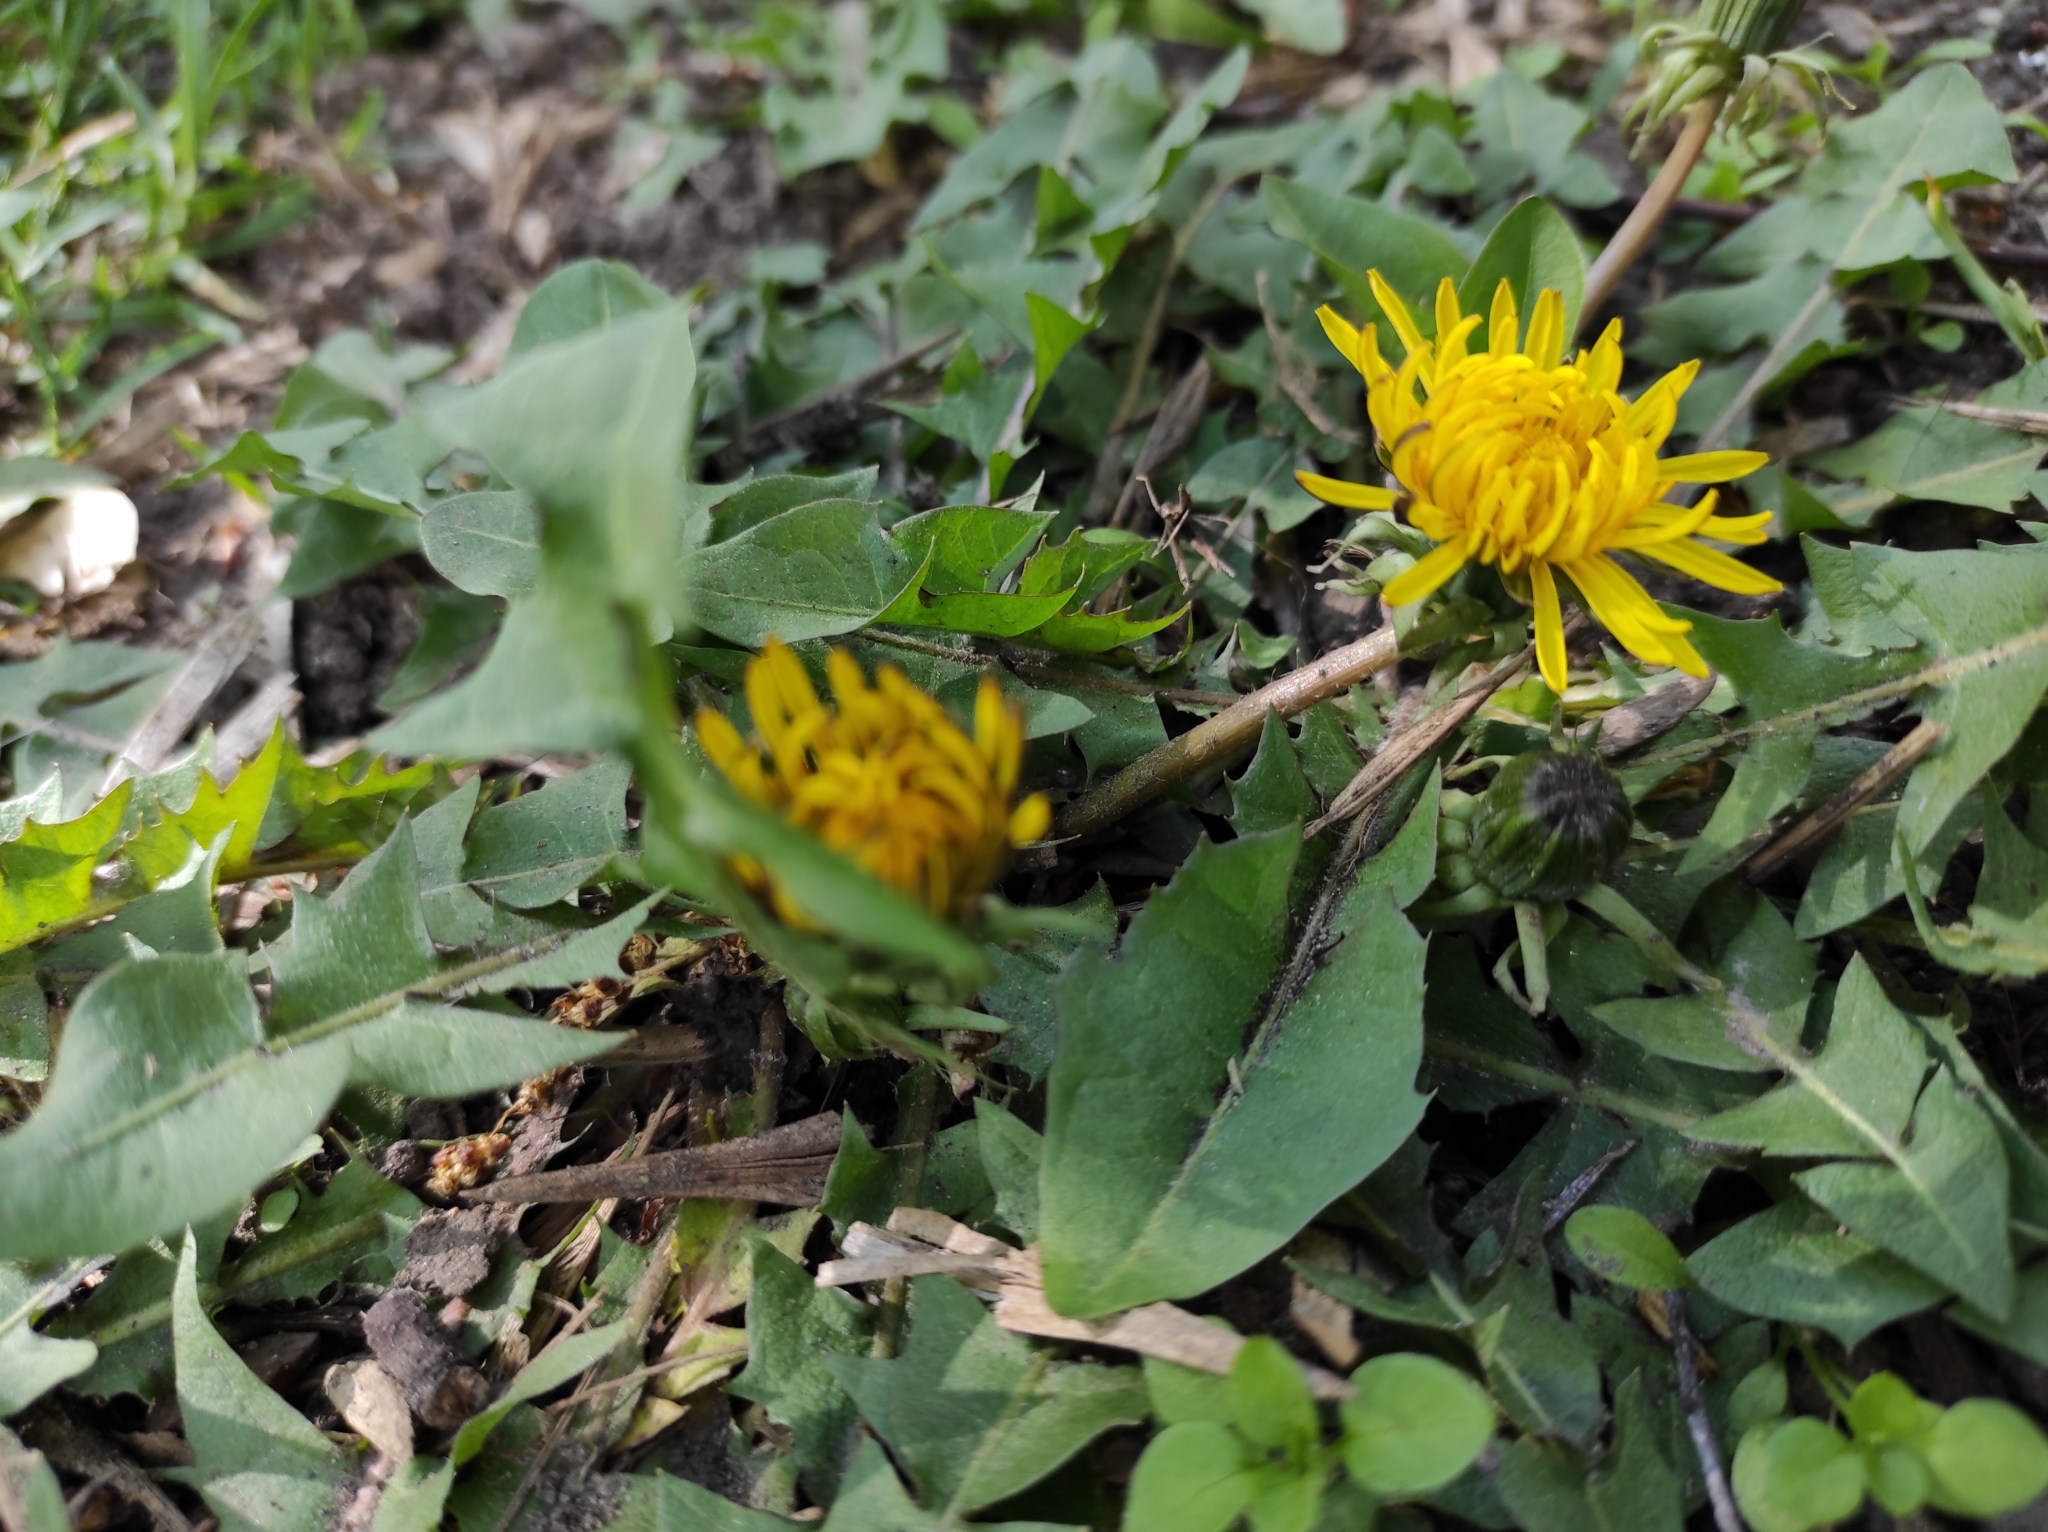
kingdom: Plantae
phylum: Tracheophyta
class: Magnoliopsida
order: Asterales
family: Asteraceae
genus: Taraxacum
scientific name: Taraxacum officinale
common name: Common dandelion
